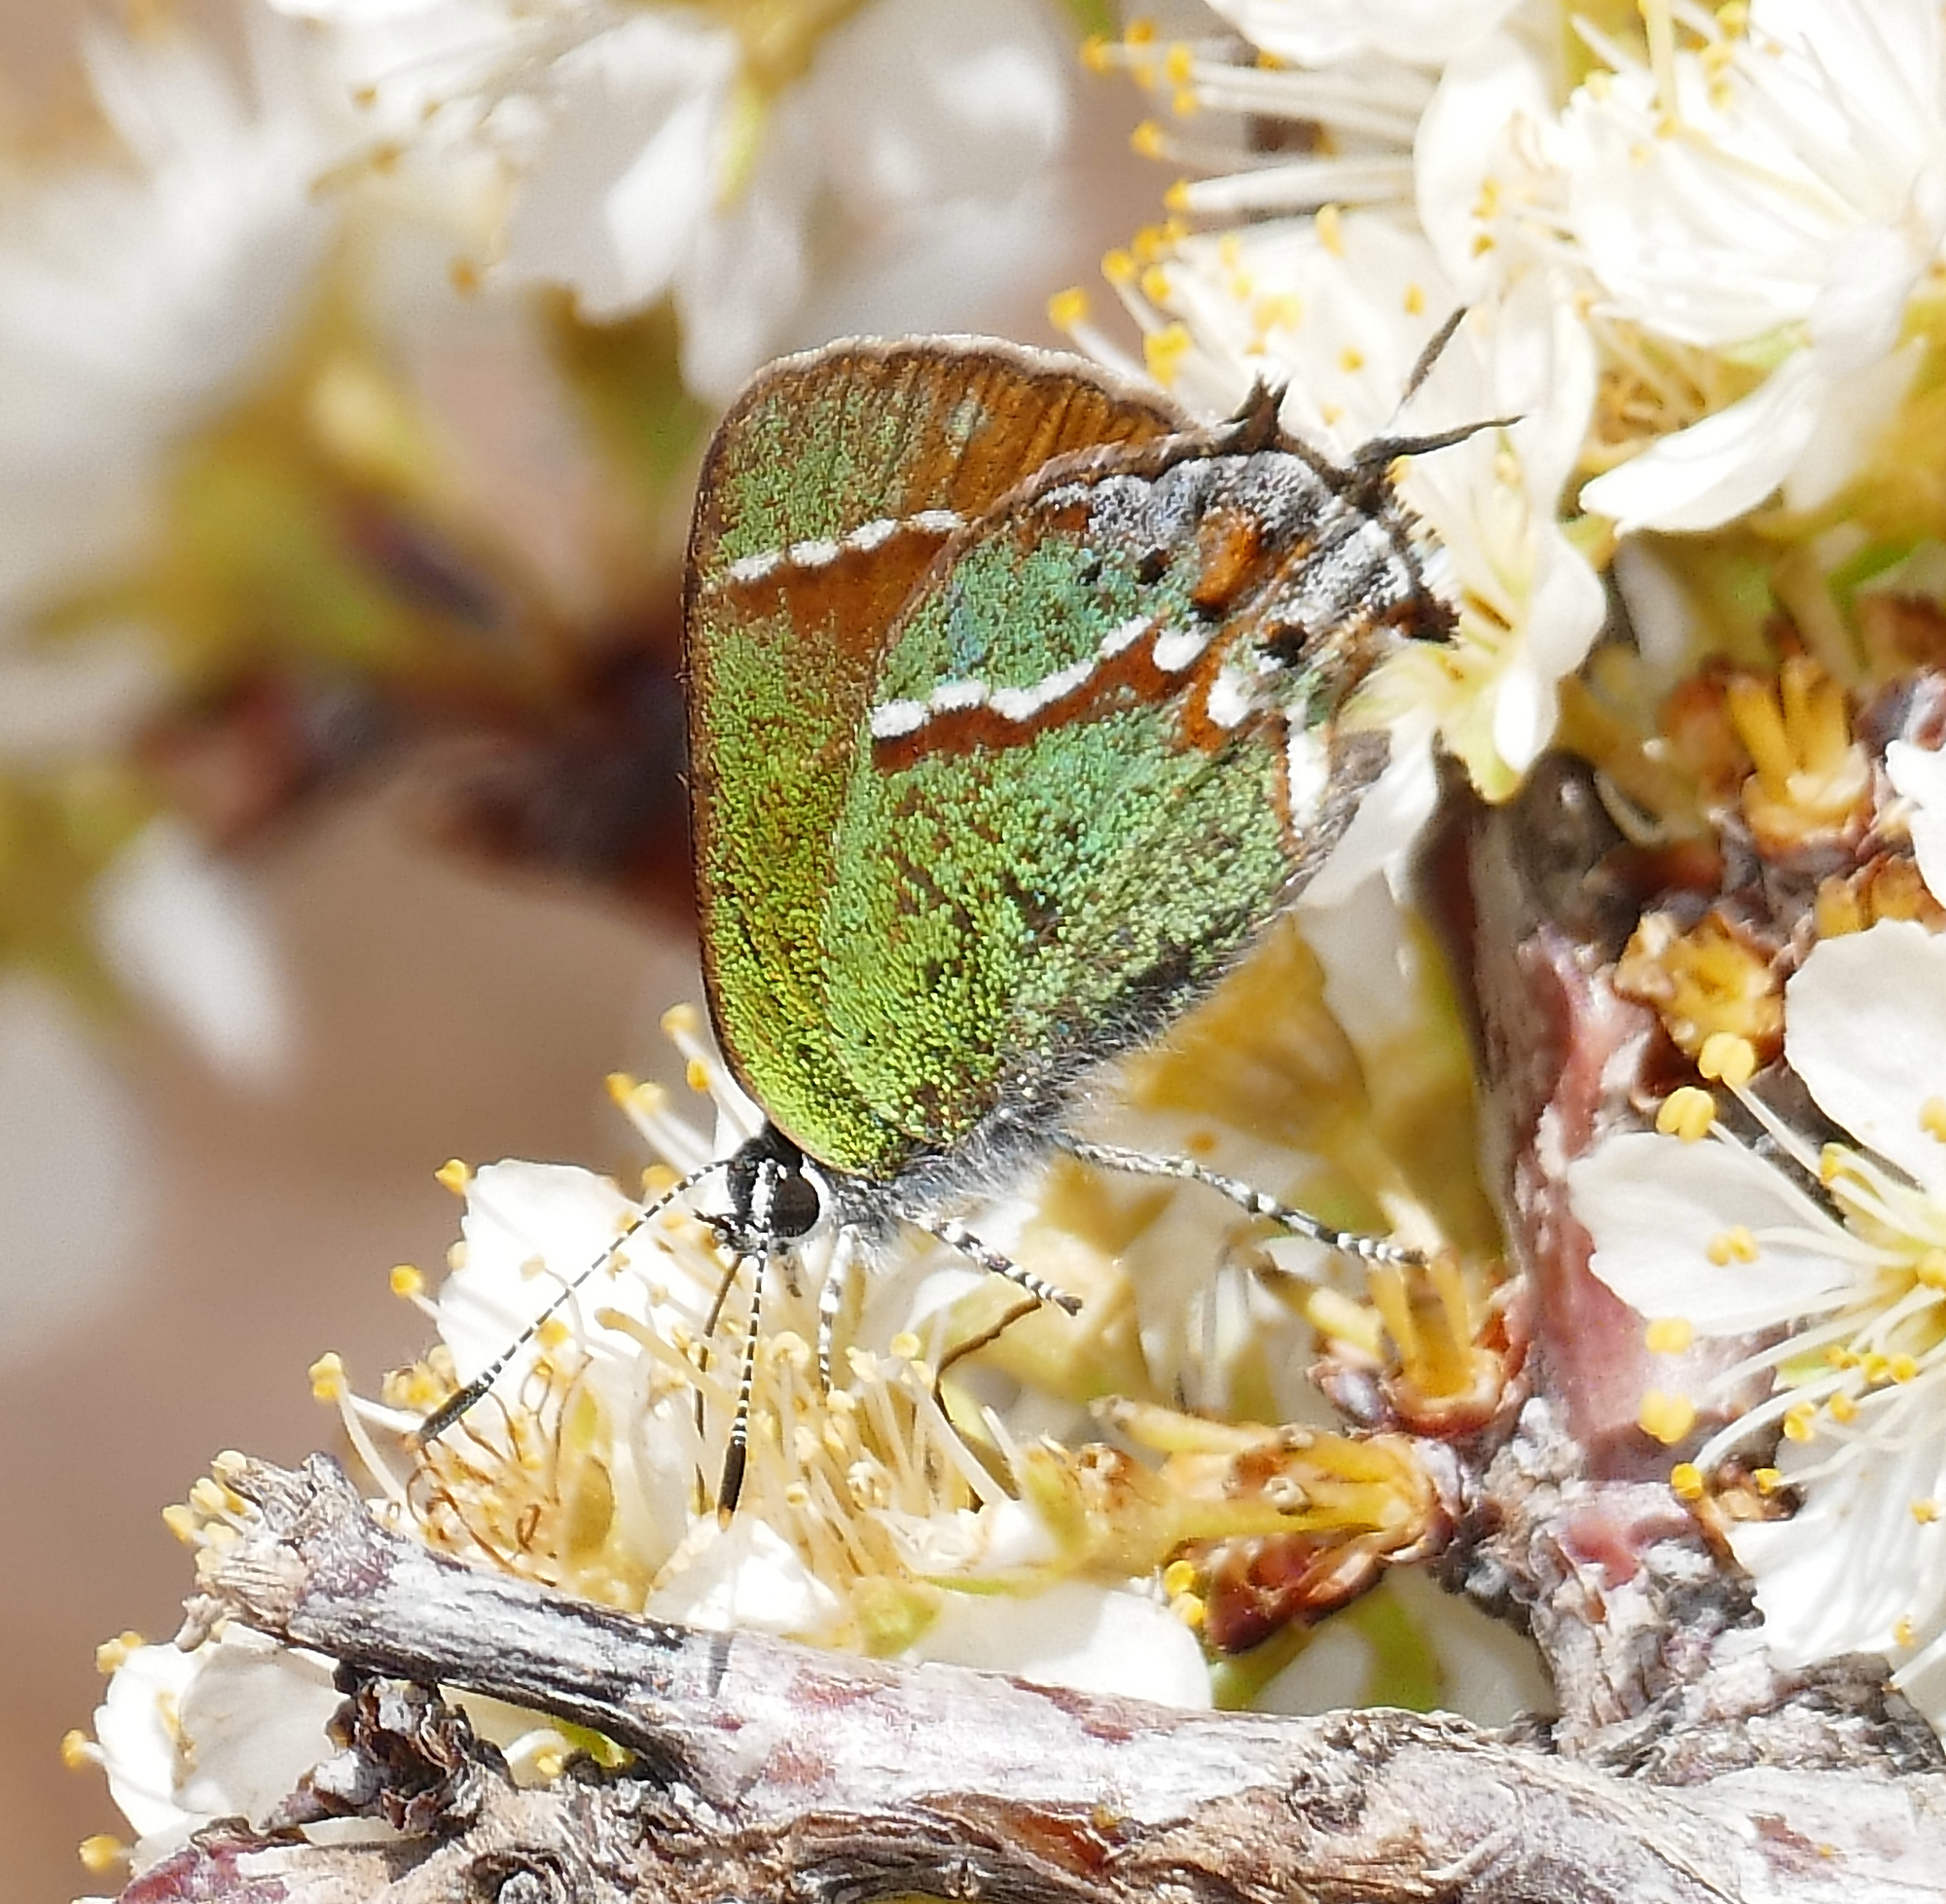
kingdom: Animalia
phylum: Arthropoda
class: Insecta
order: Lepidoptera
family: Lycaenidae
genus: Mitoura
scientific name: Mitoura gryneus
